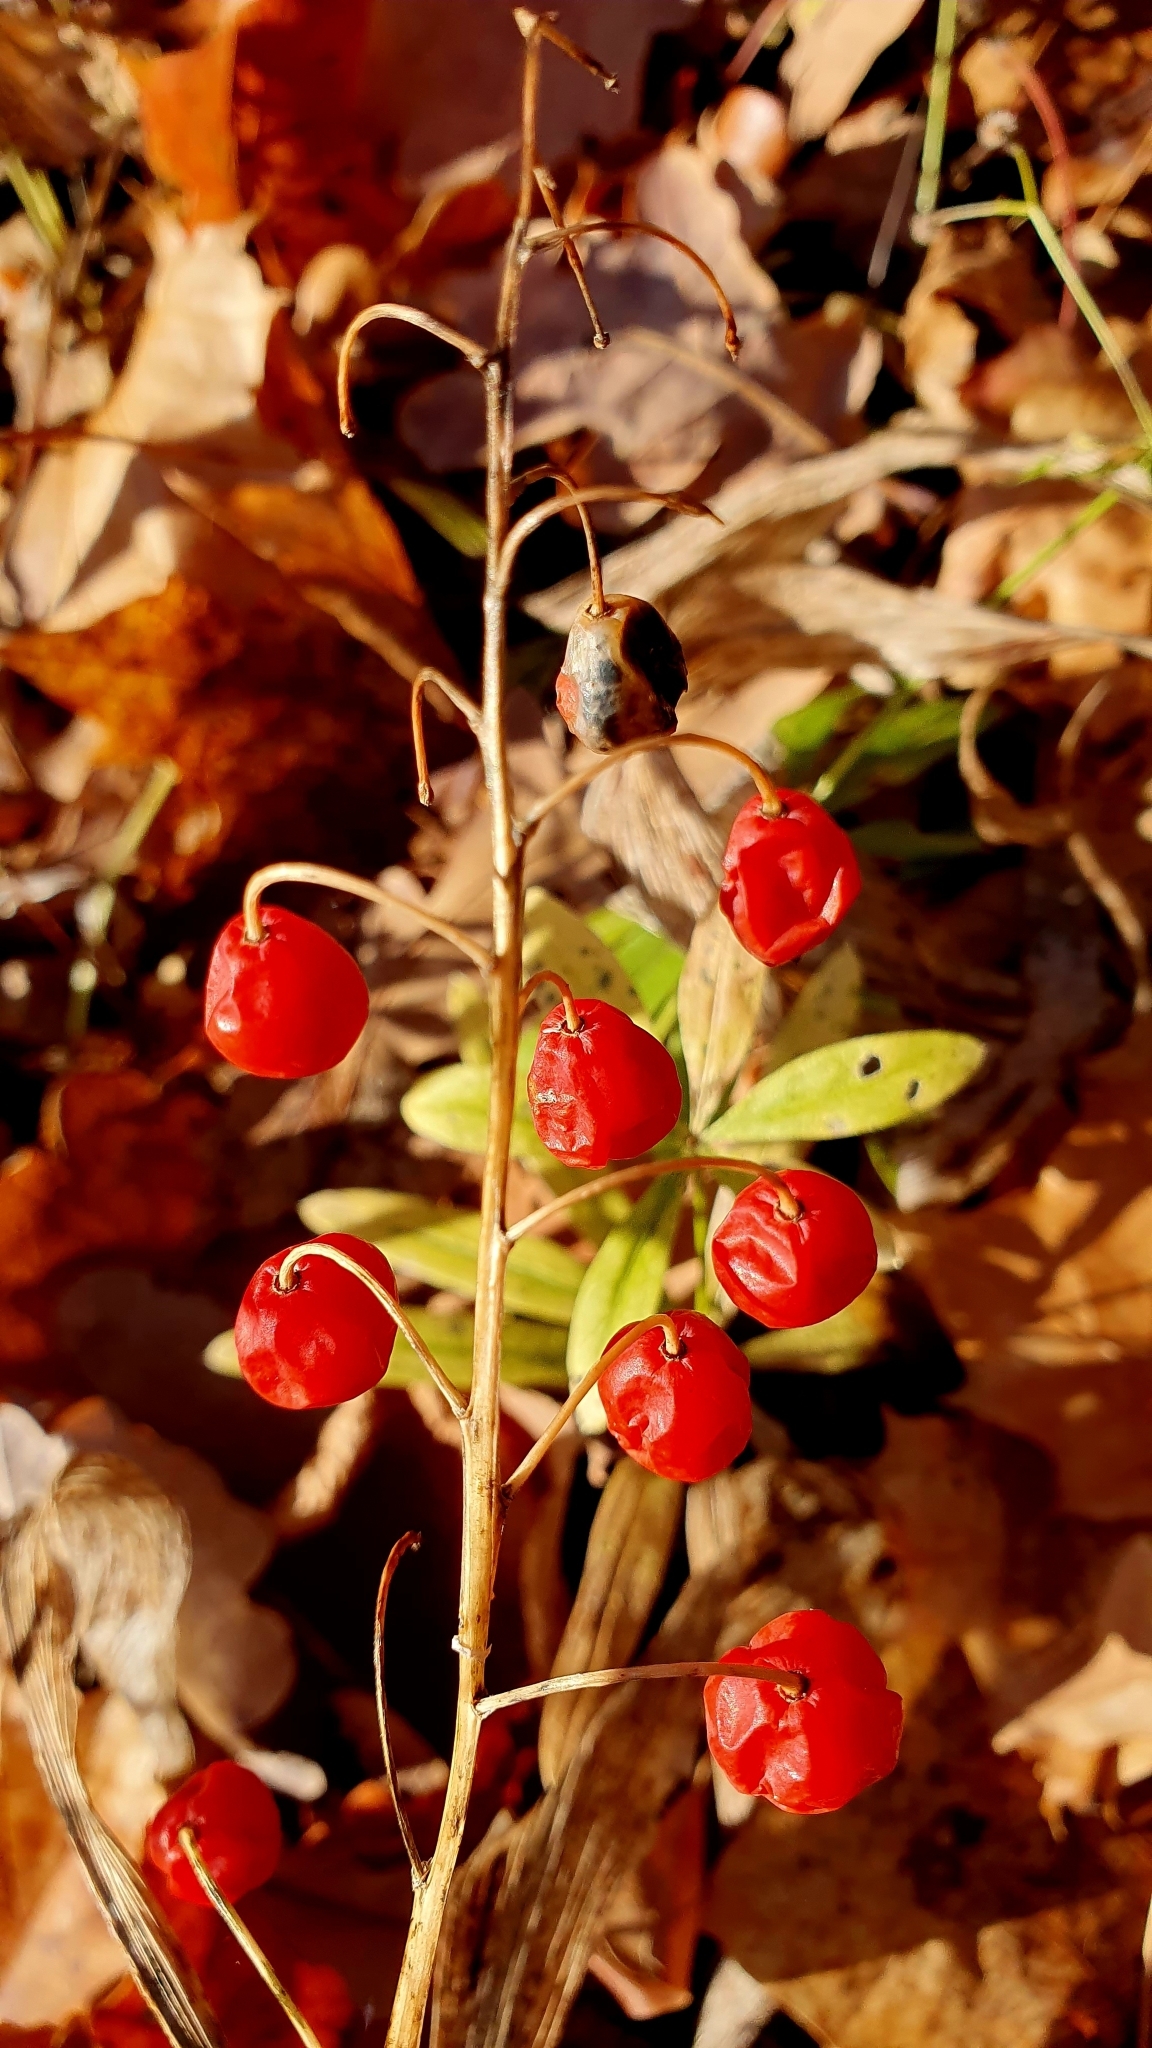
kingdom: Plantae
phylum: Tracheophyta
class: Liliopsida
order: Asparagales
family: Asparagaceae
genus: Convallaria
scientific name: Convallaria majalis
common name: Lily-of-the-valley
